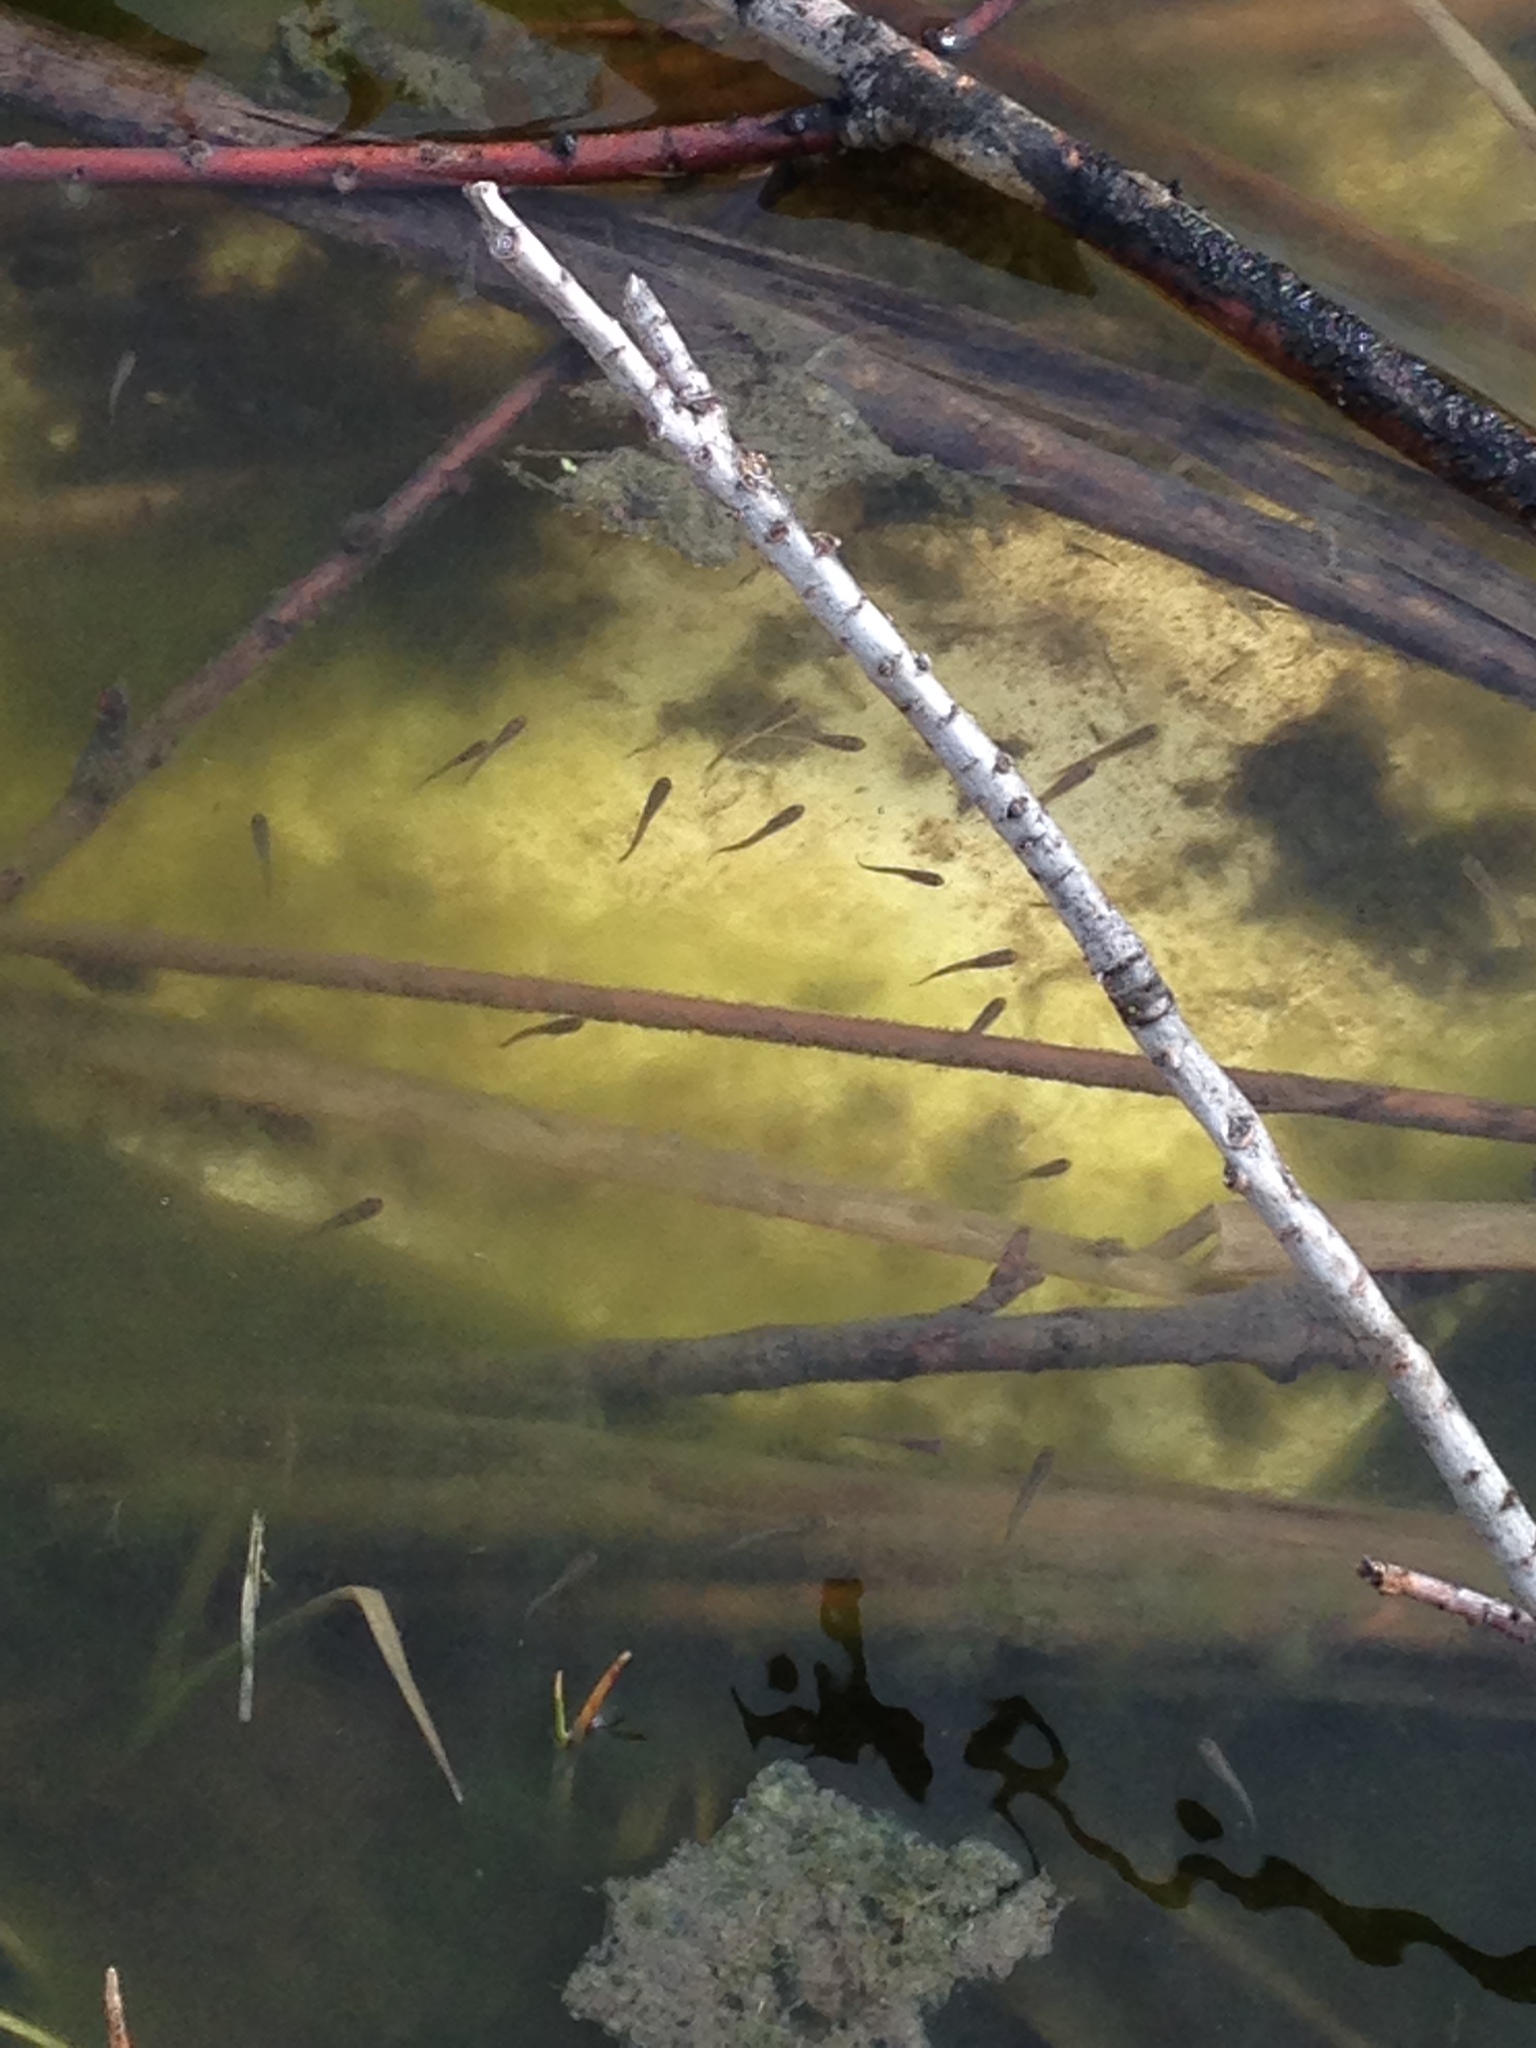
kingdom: Animalia
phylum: Chordata
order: Cyprinodontiformes
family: Poeciliidae
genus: Gambusia
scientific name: Gambusia affinis
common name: Mosquitofish
